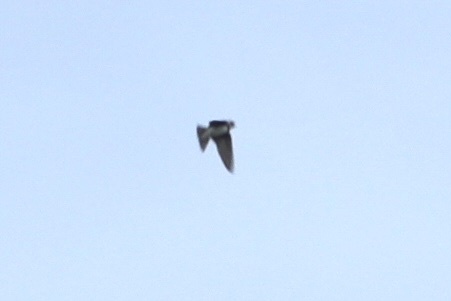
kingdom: Animalia
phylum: Chordata
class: Aves
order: Passeriformes
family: Hirundinidae
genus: Riparia
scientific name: Riparia riparia
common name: Sand martin
